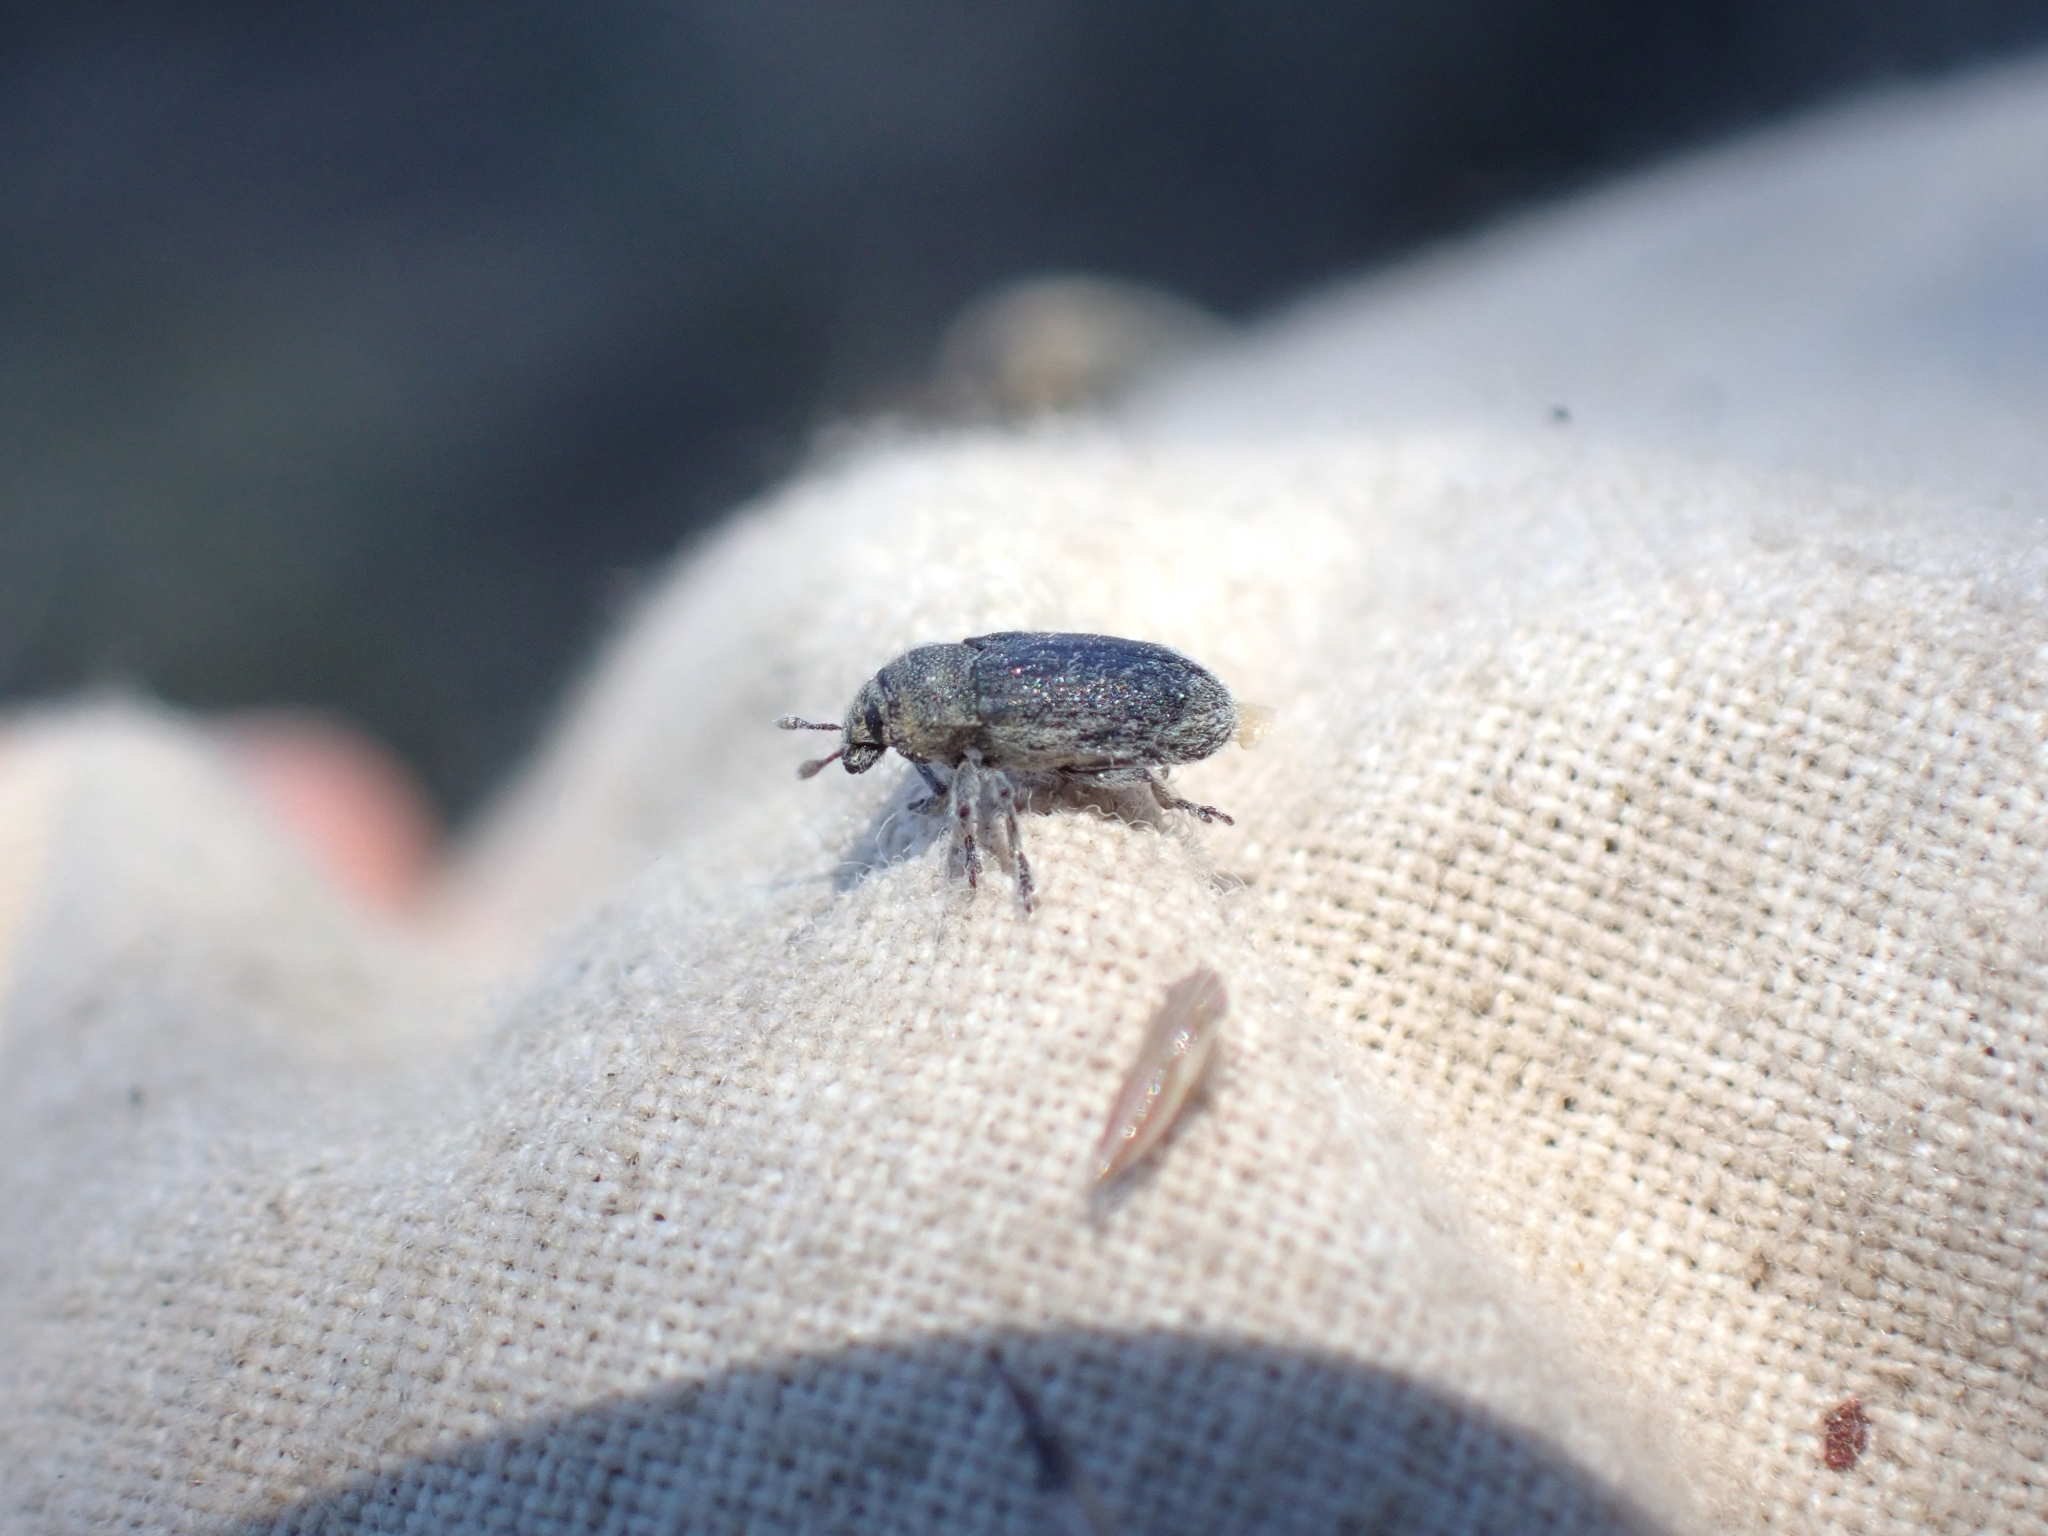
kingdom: Animalia
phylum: Arthropoda
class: Insecta
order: Coleoptera
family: Curculionidae
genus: Bangasternus
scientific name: Bangasternus fausti
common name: Broad-nosed knapweed seedhead weevil
